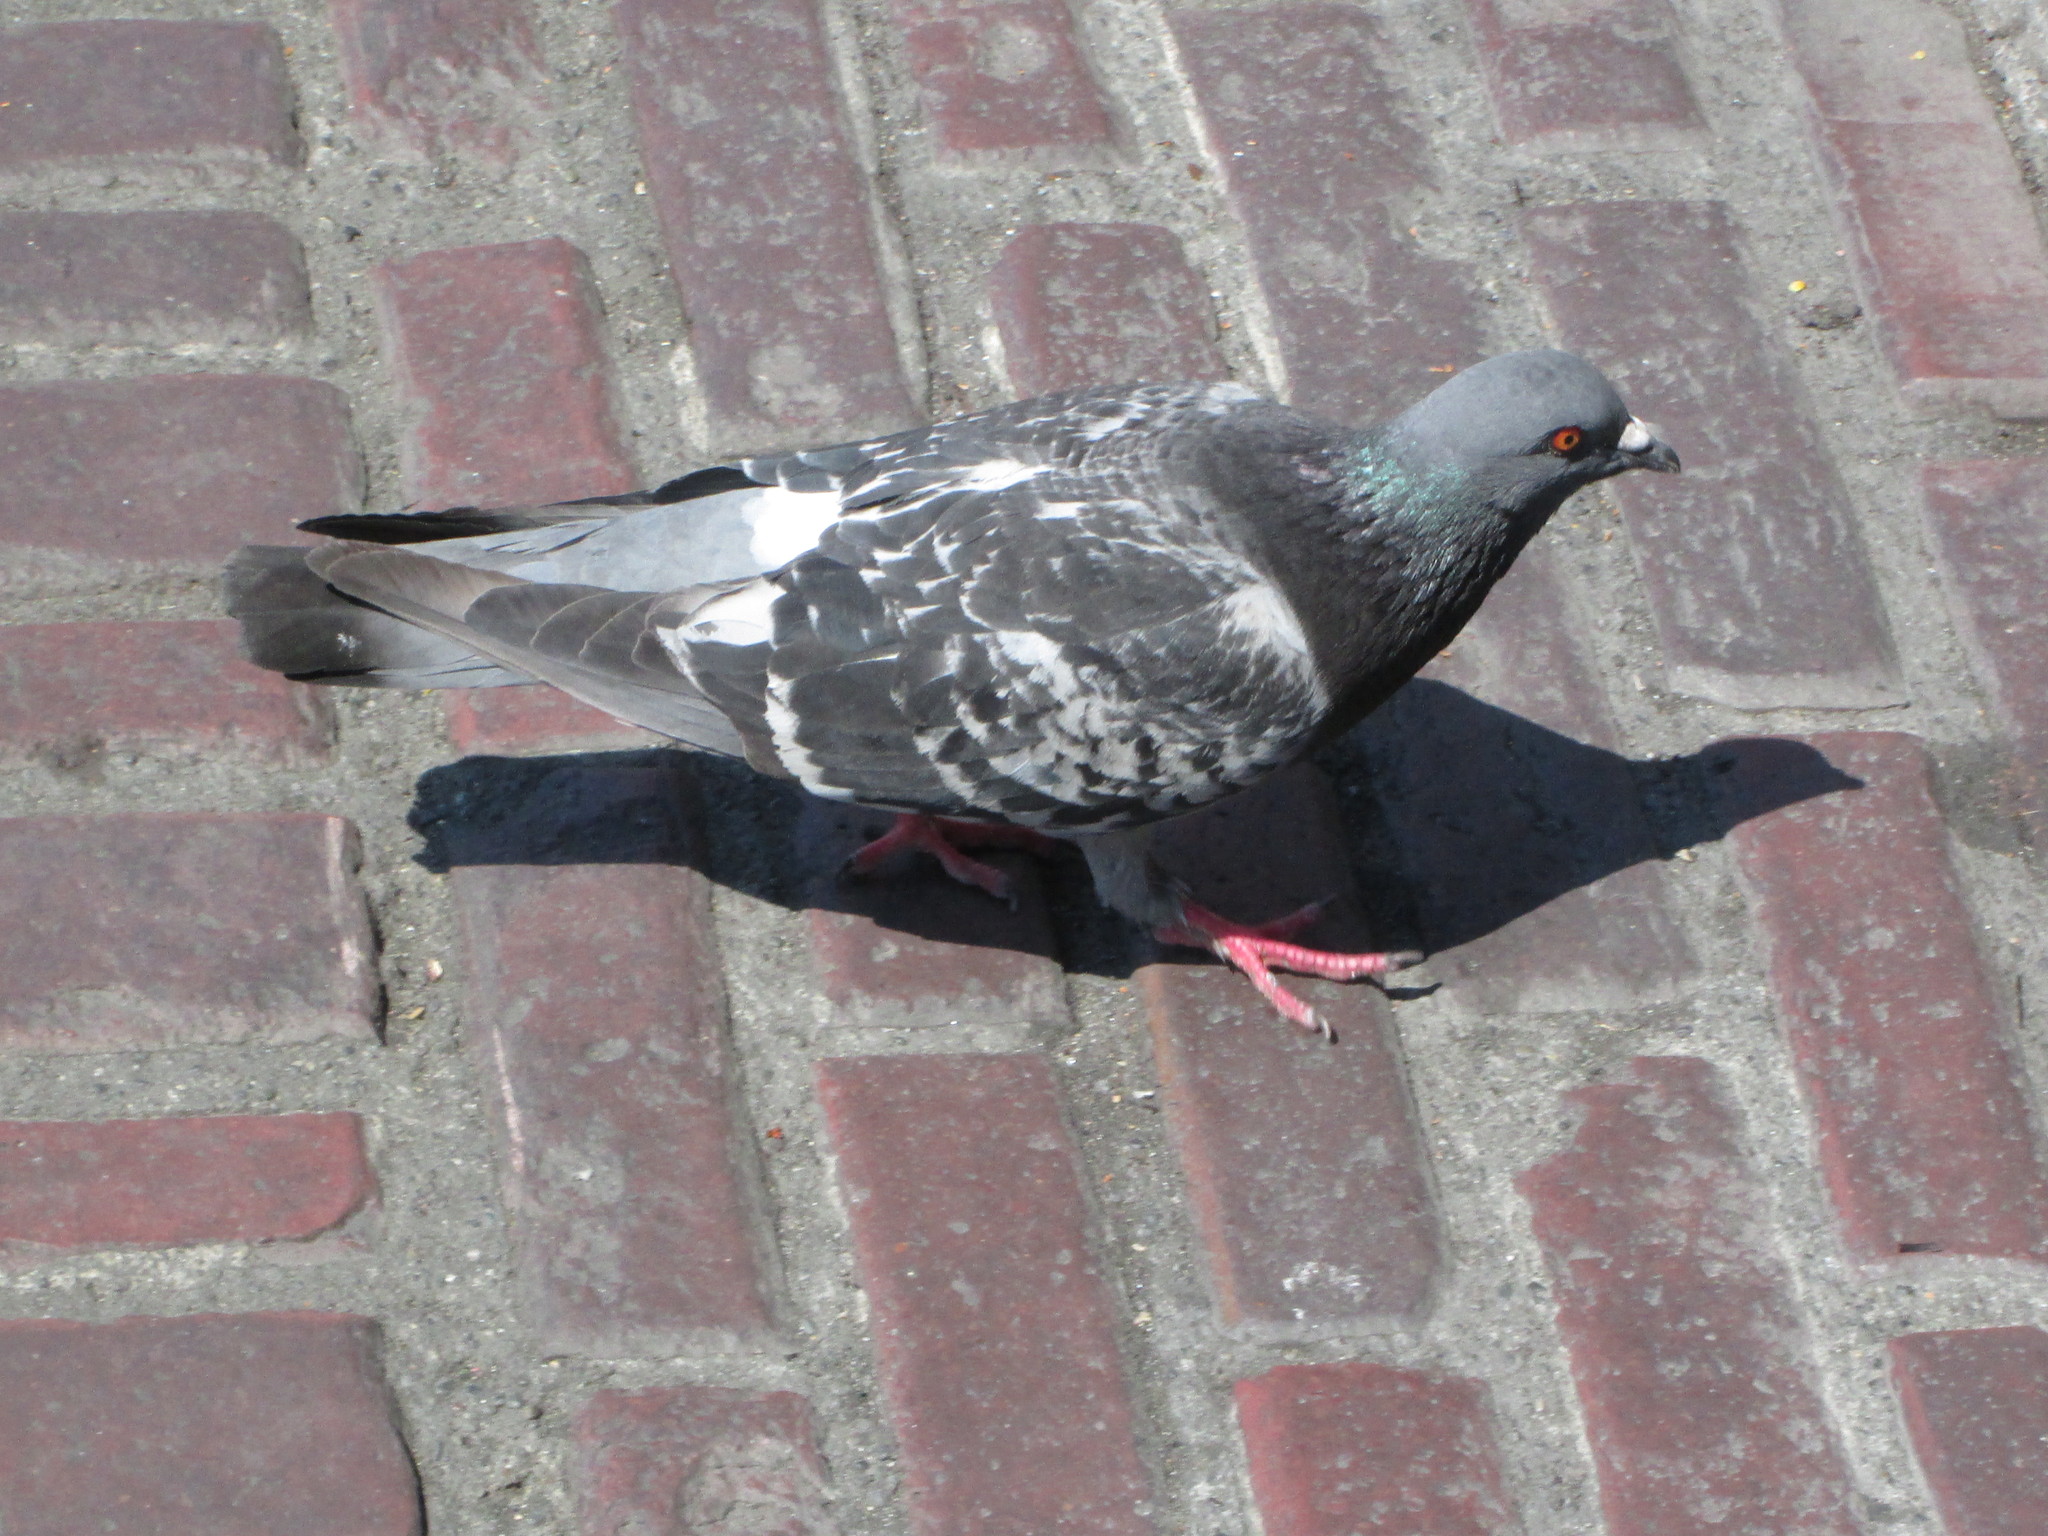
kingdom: Animalia
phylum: Chordata
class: Aves
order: Columbiformes
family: Columbidae
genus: Columba
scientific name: Columba livia
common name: Rock pigeon
